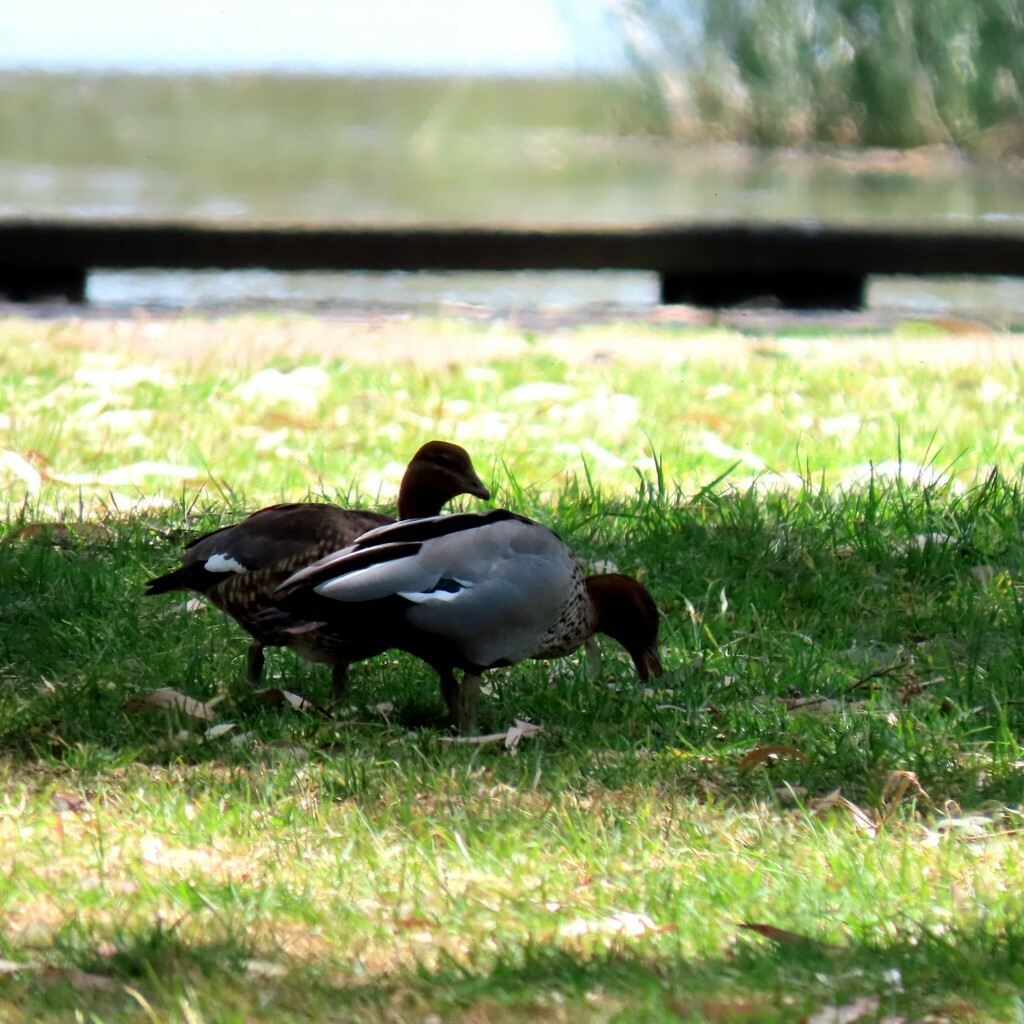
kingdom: Animalia
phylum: Chordata
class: Aves
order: Anseriformes
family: Anatidae
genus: Chenonetta
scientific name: Chenonetta jubata
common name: Maned duck
